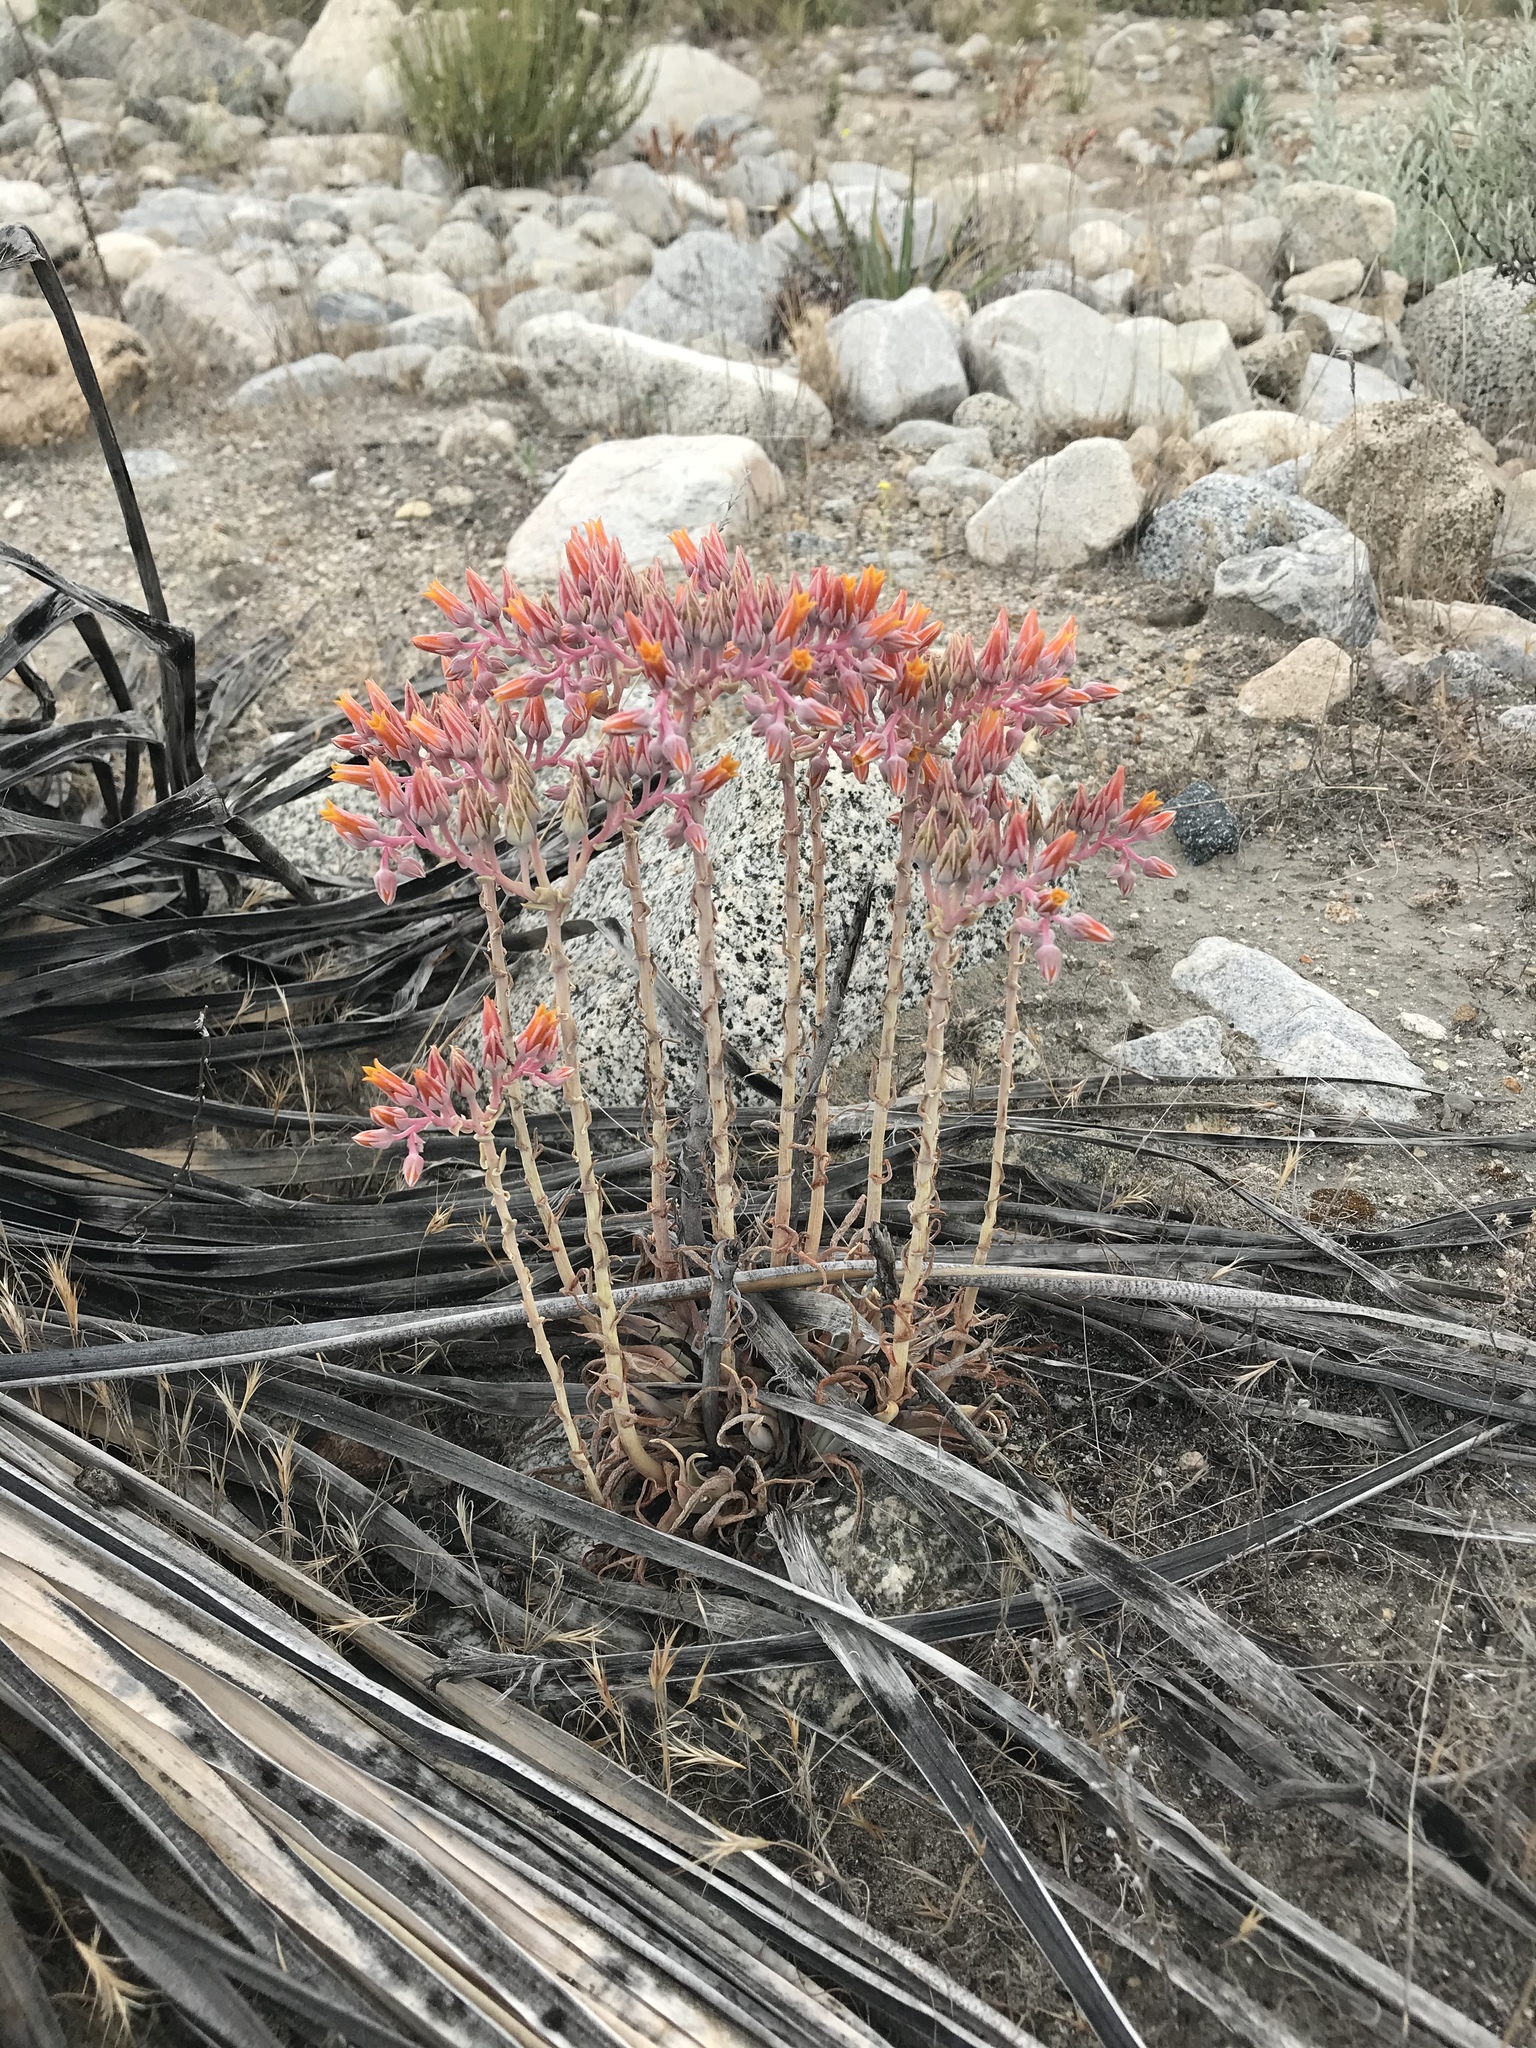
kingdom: Plantae
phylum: Tracheophyta
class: Magnoliopsida
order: Saxifragales
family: Crassulaceae
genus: Dudleya
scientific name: Dudleya lanceolata
